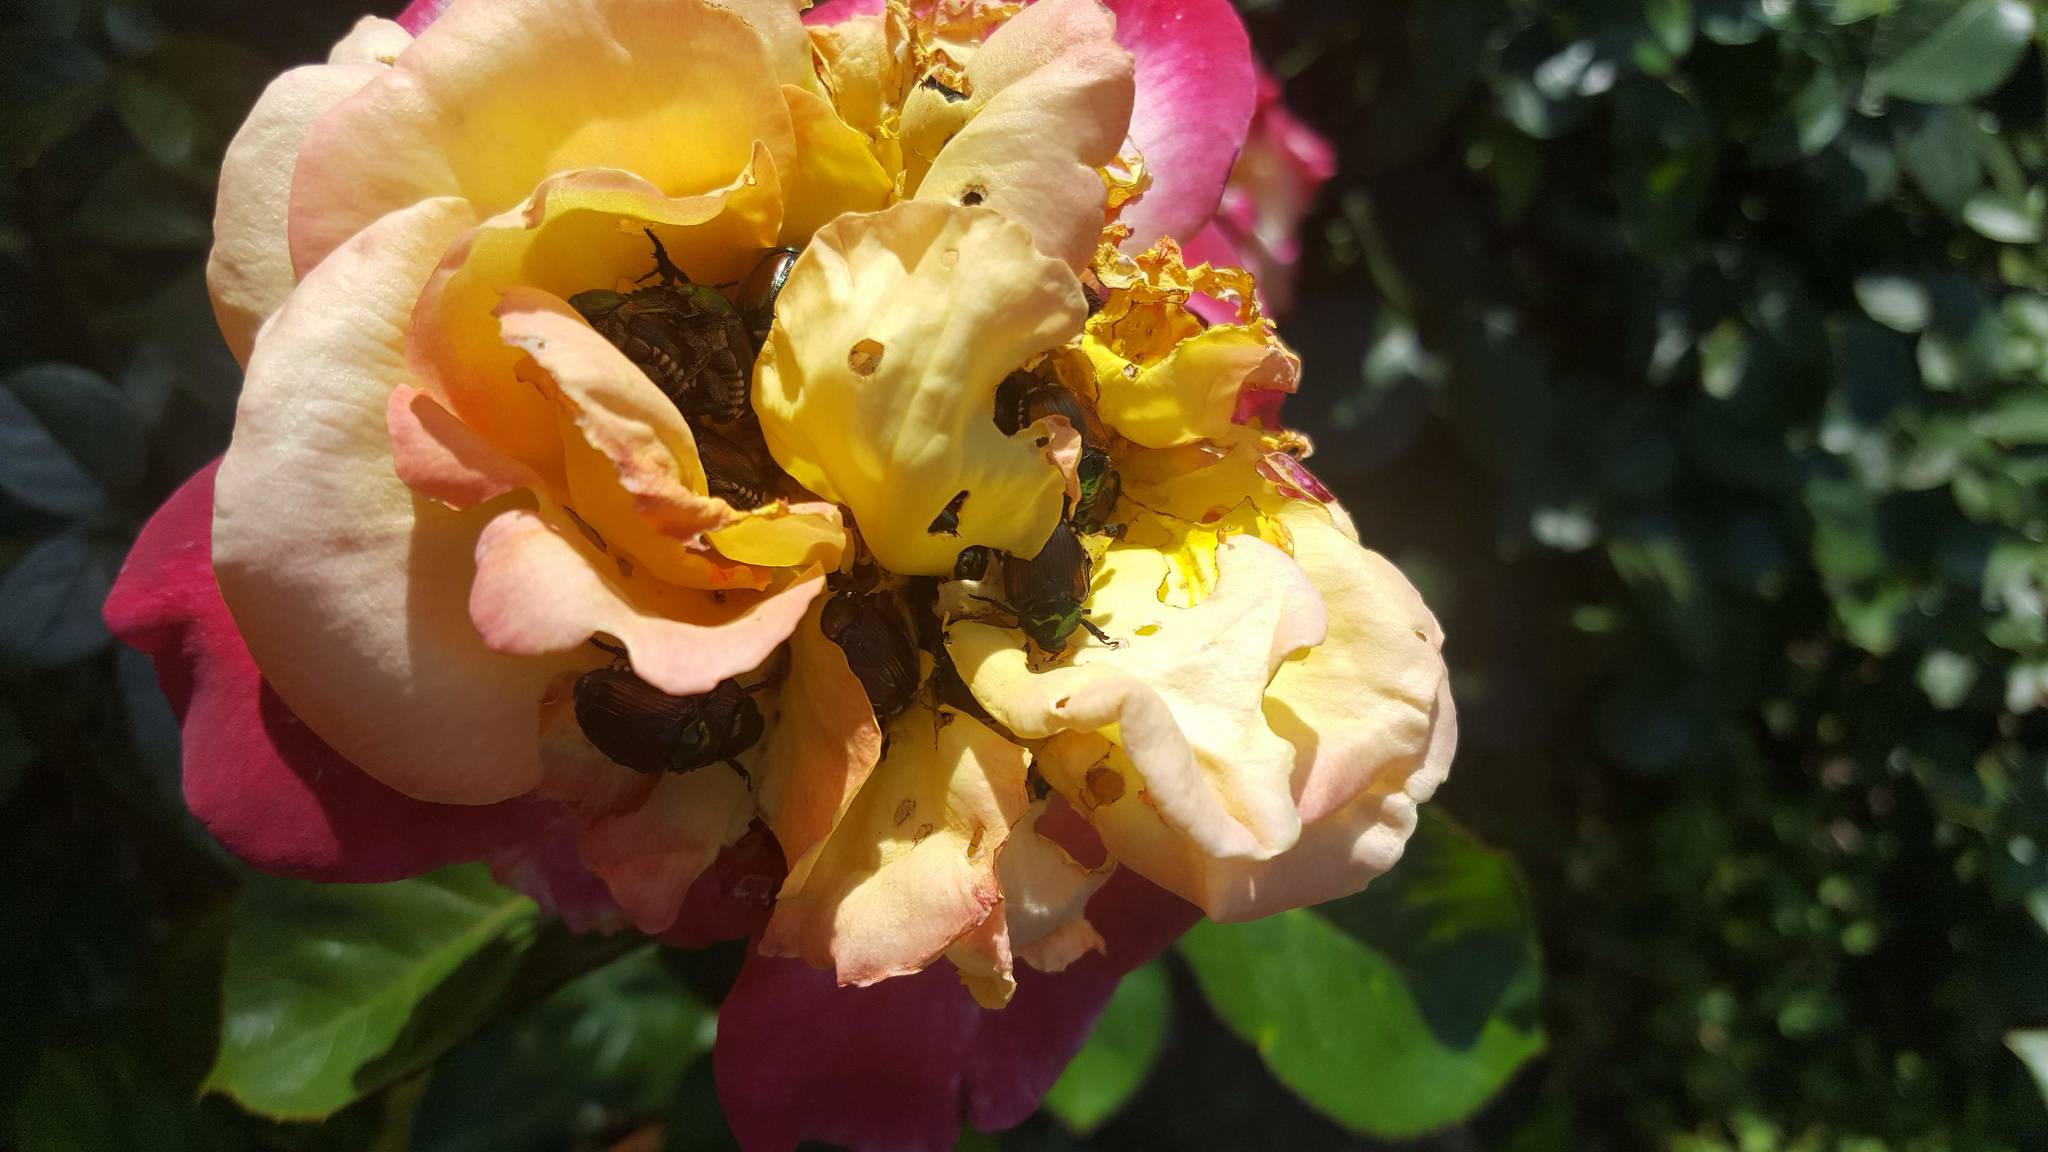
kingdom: Animalia
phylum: Arthropoda
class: Insecta
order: Coleoptera
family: Scarabaeidae
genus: Popillia
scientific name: Popillia japonica
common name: Japanese beetle
